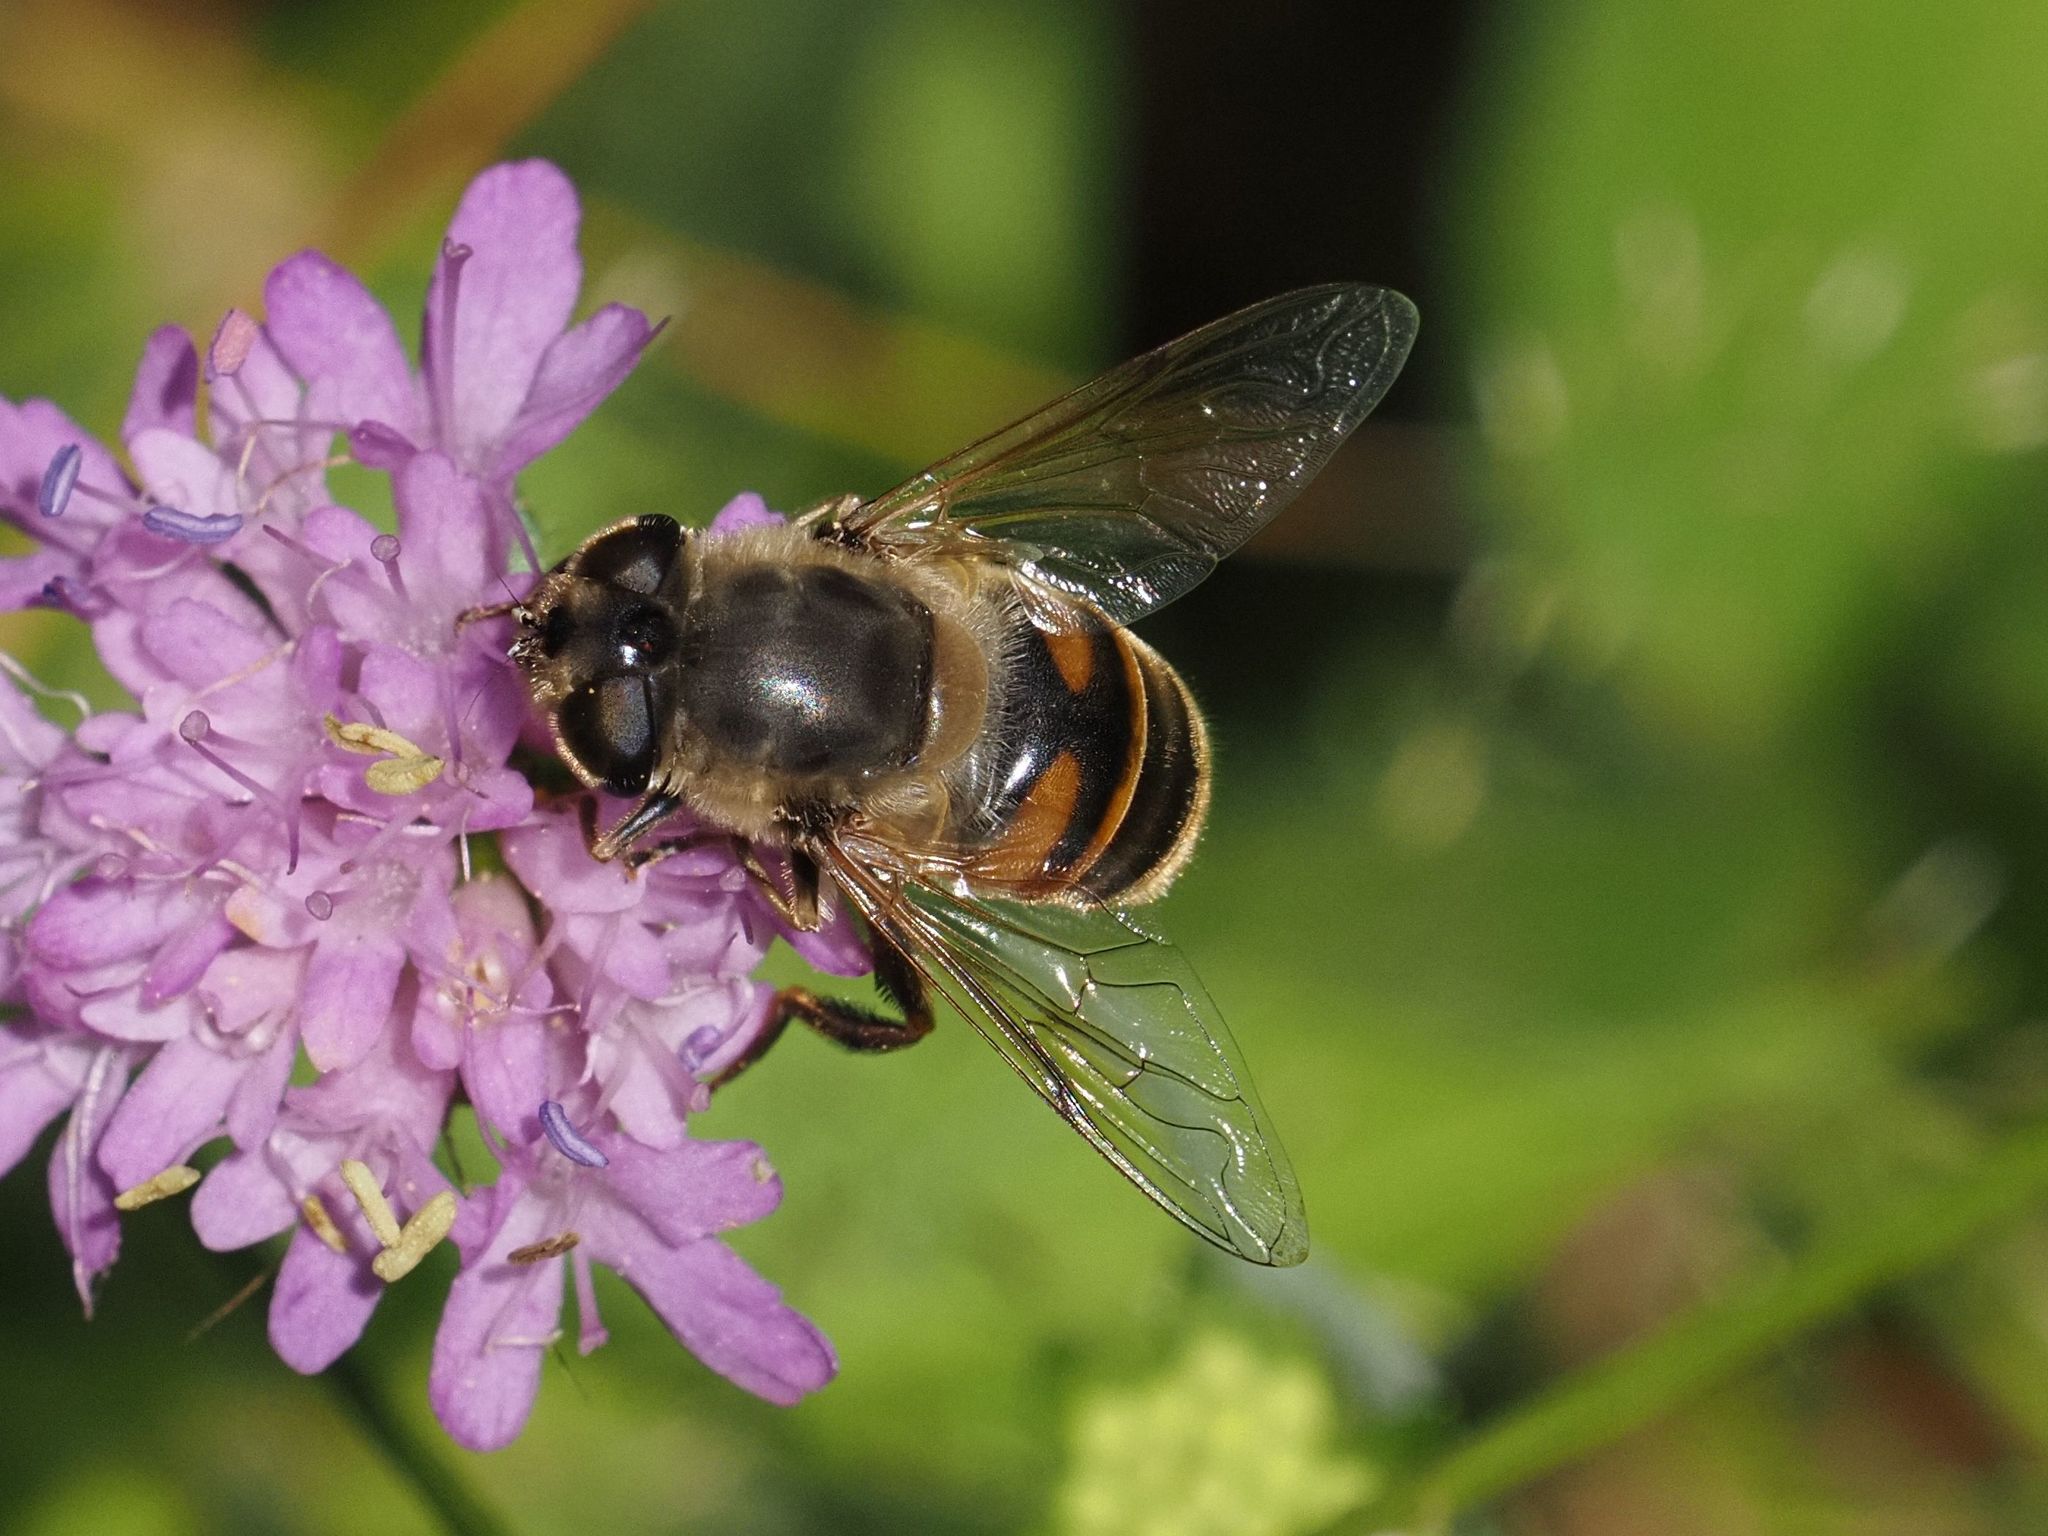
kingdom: Animalia
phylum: Arthropoda
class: Insecta
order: Diptera
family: Syrphidae
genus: Eristalis
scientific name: Eristalis tenax
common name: Drone fly
